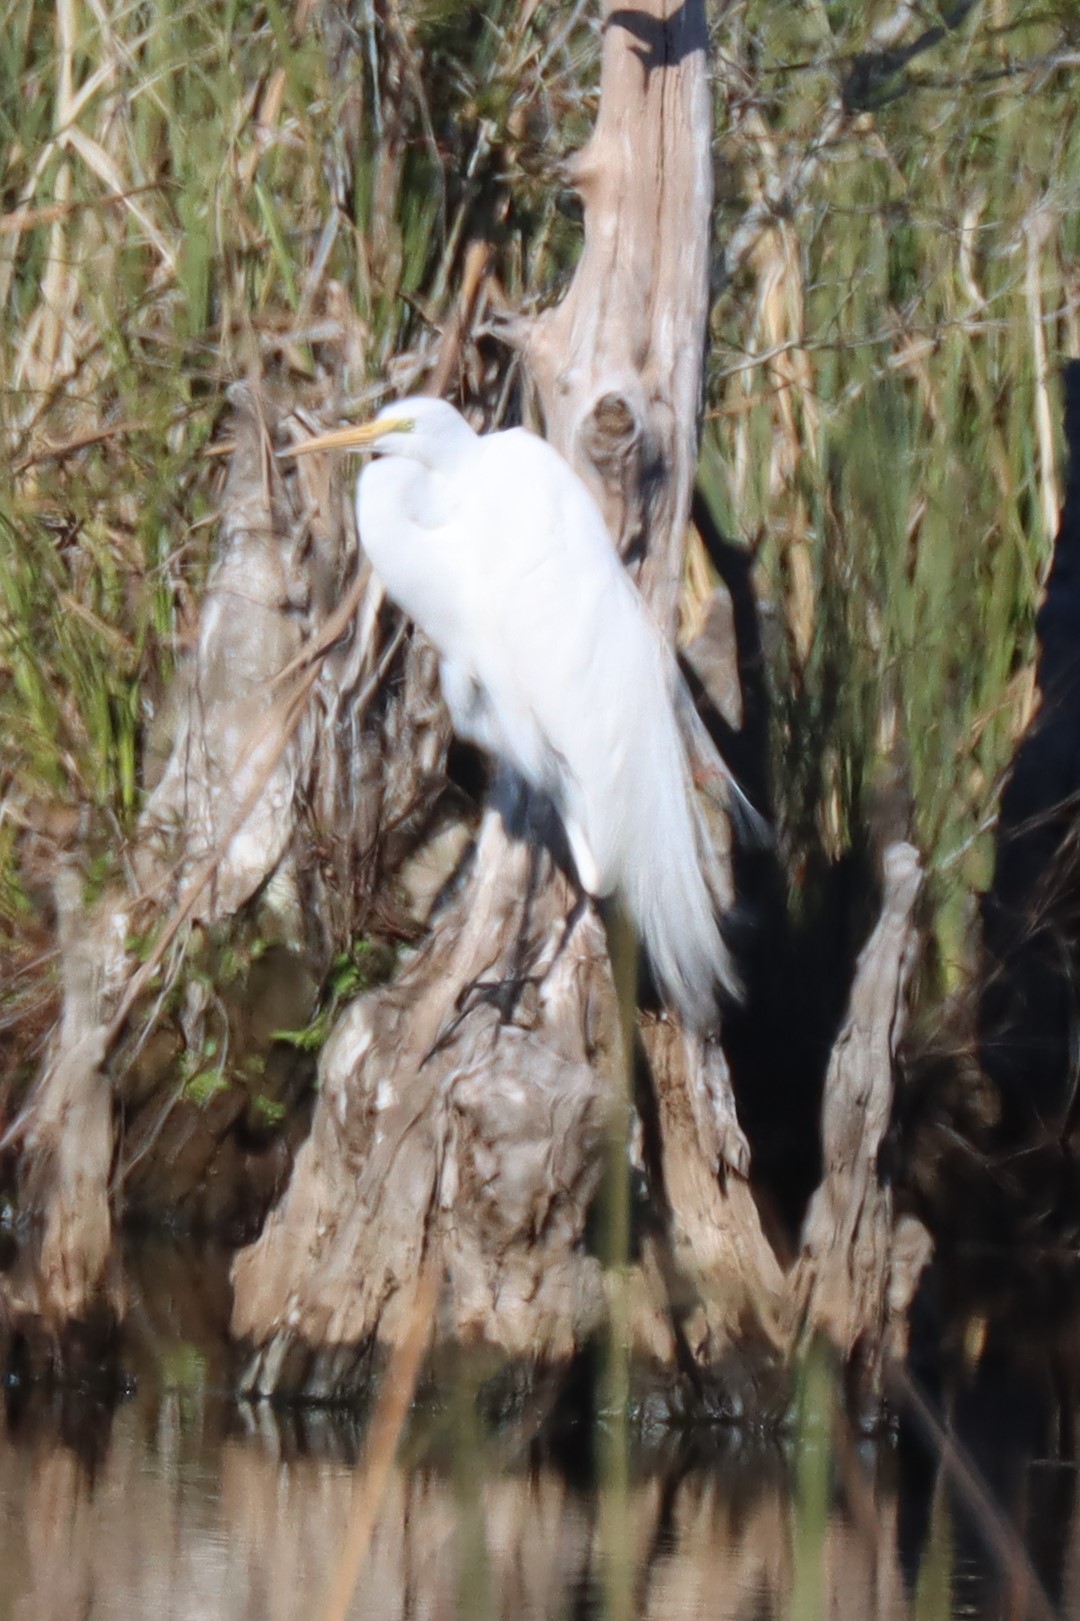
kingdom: Animalia
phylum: Chordata
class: Aves
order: Pelecaniformes
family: Ardeidae
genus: Ardea
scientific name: Ardea alba
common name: Great egret
